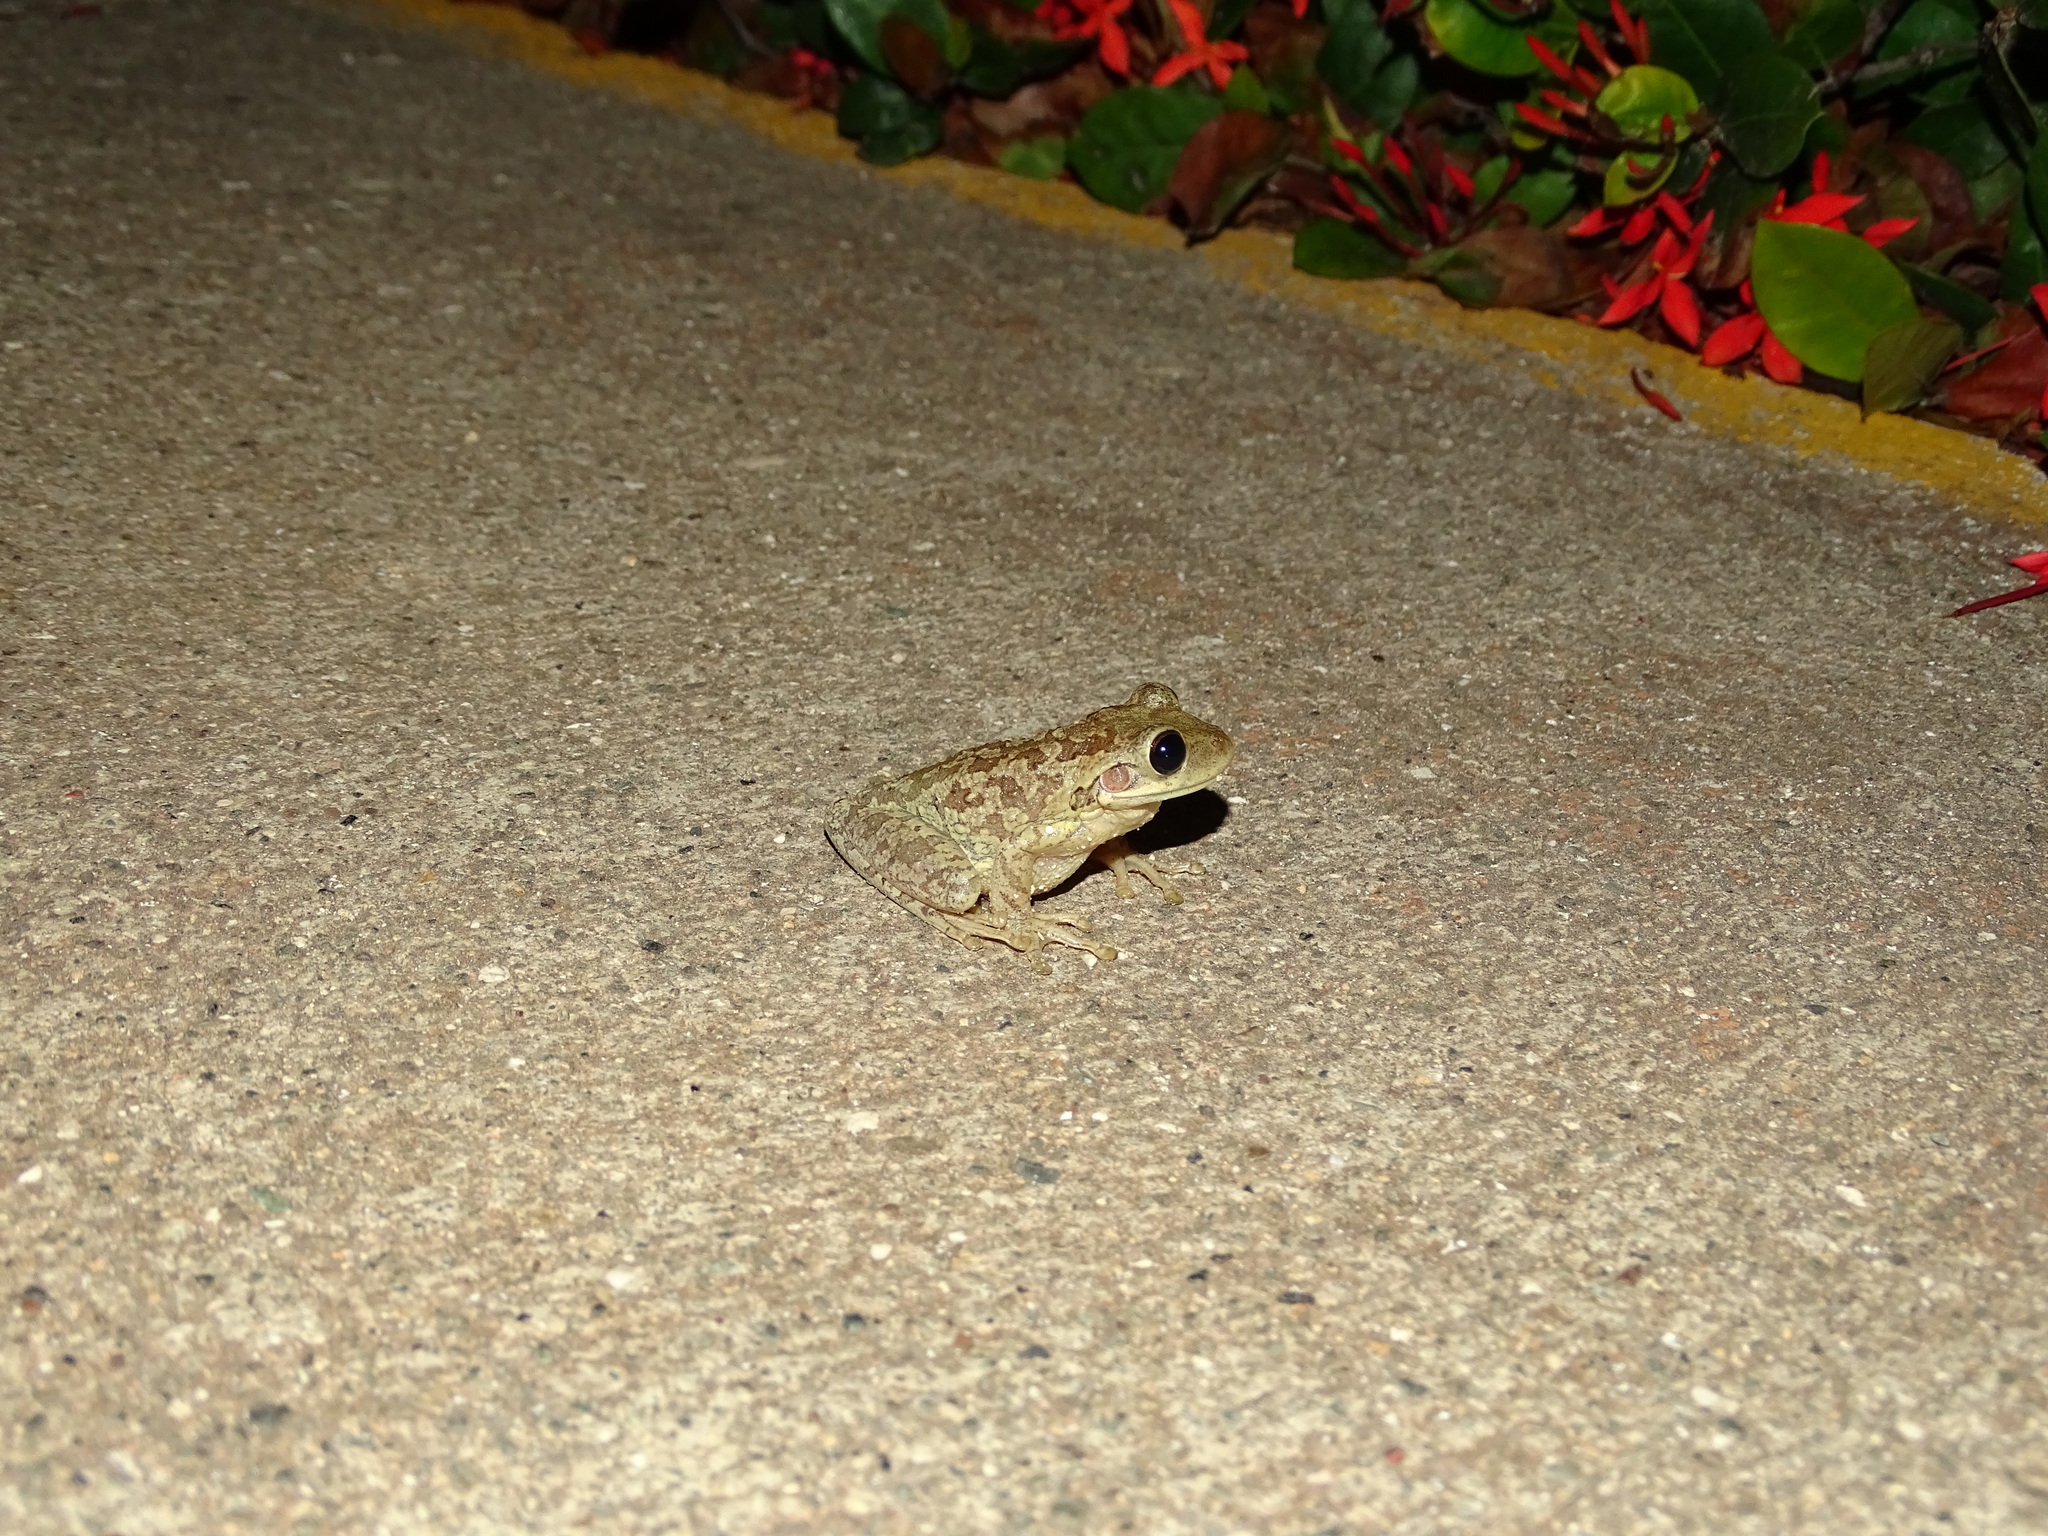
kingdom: Animalia
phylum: Chordata
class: Amphibia
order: Anura
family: Hylidae
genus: Osteopilus
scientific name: Osteopilus septentrionalis
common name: Cuban treefrog
